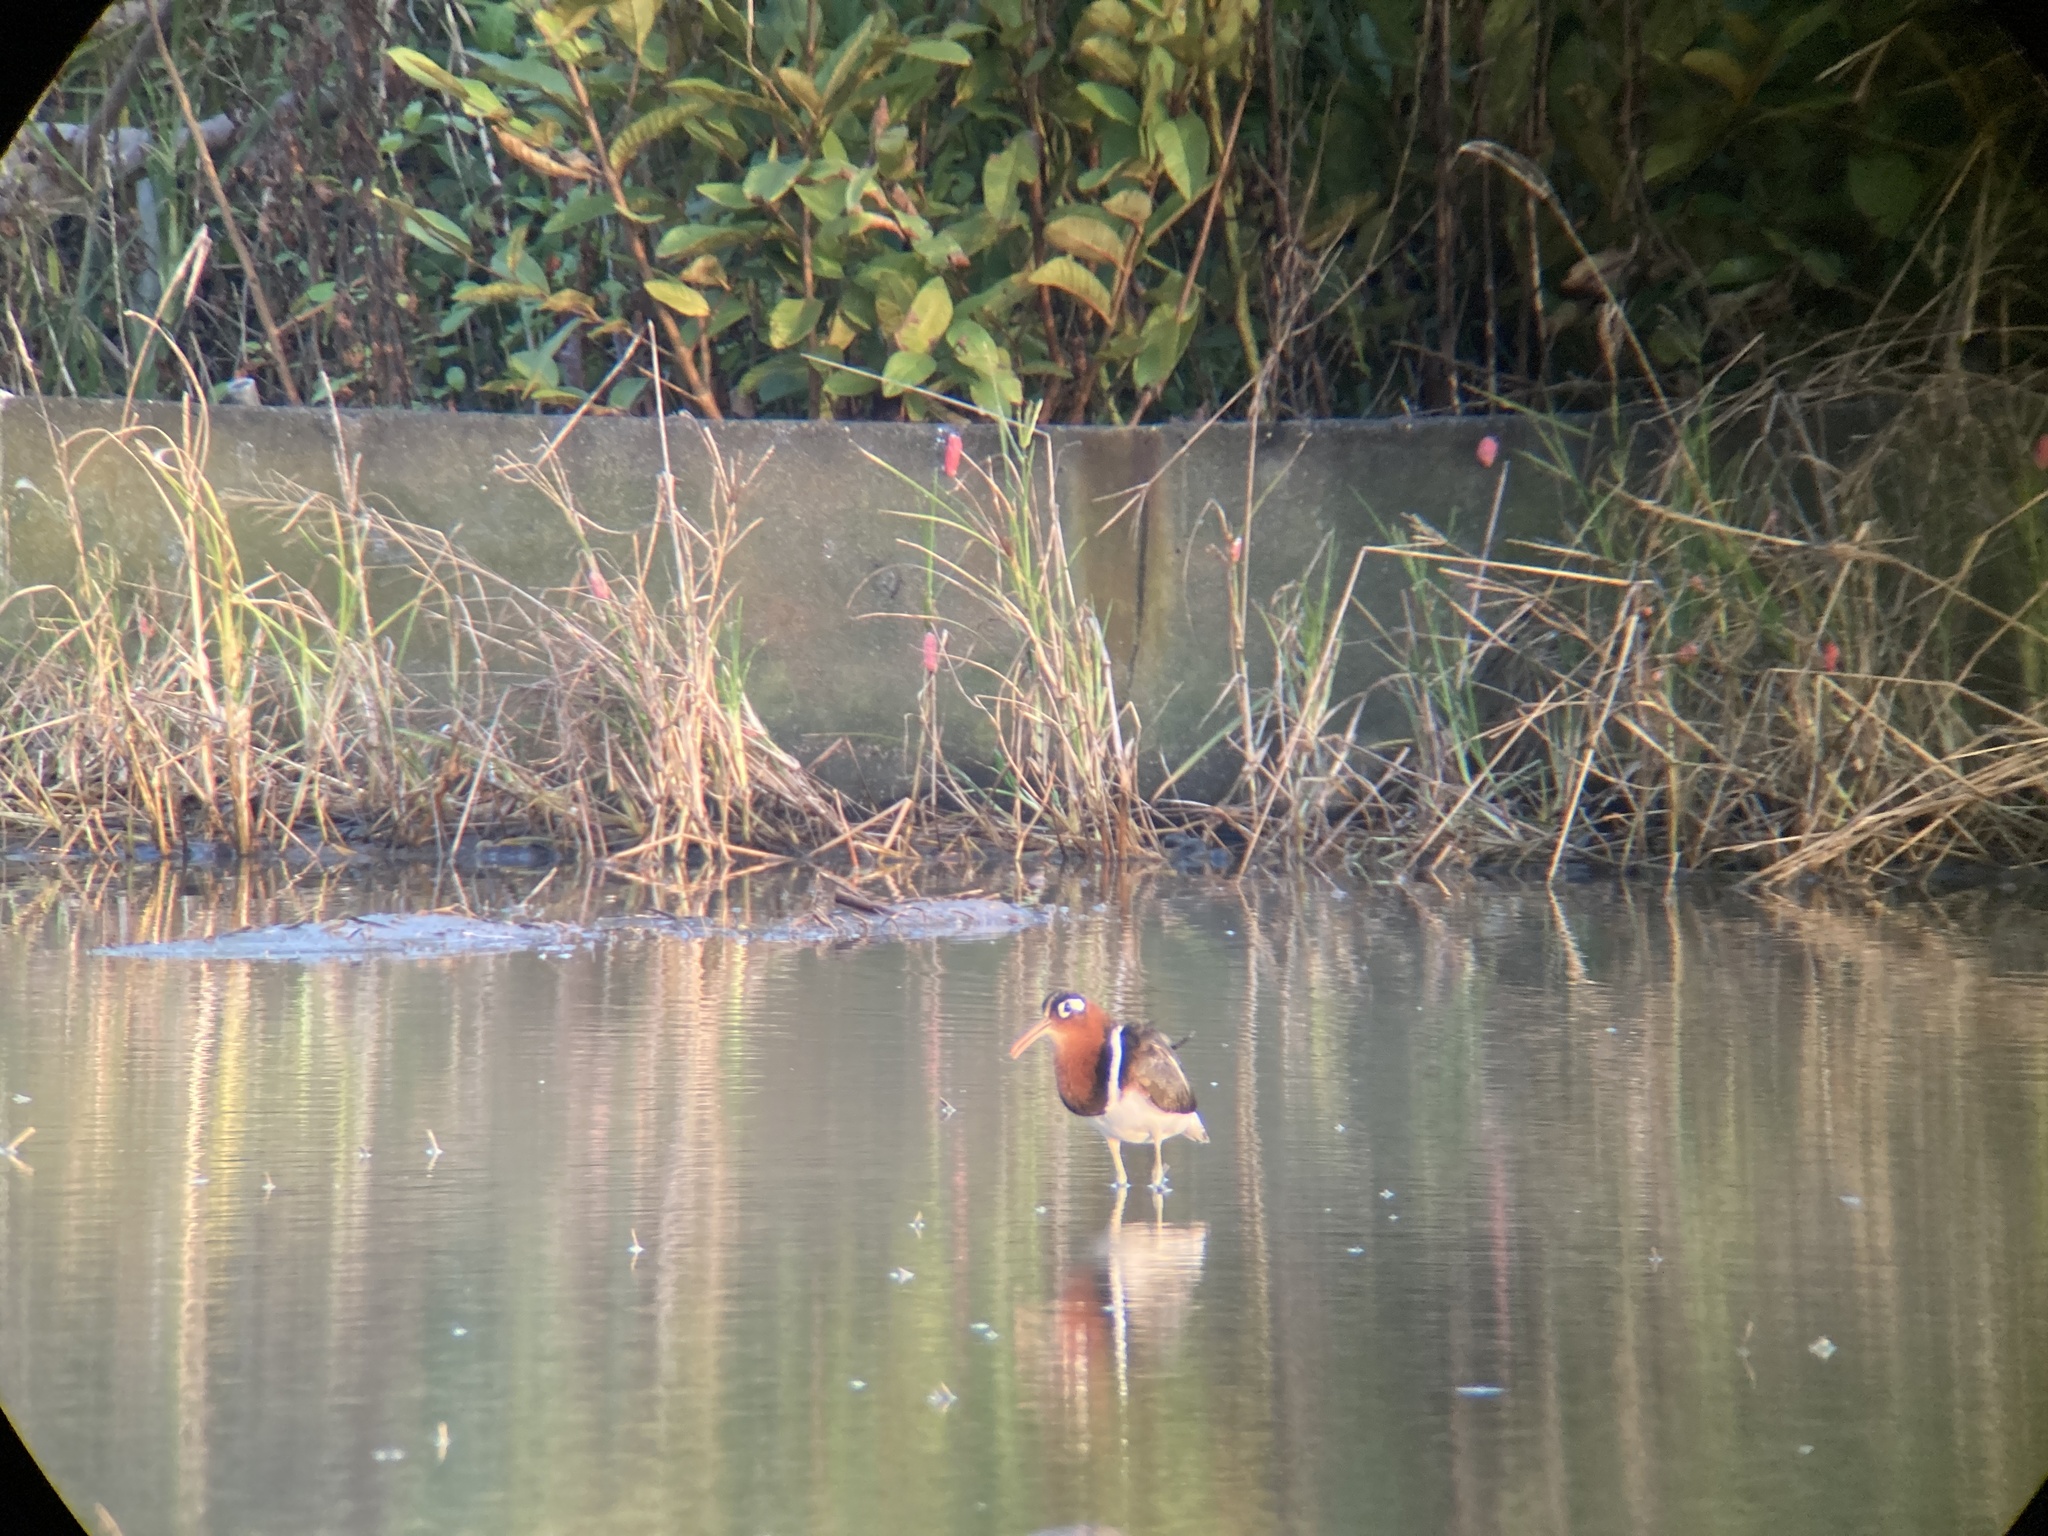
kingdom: Animalia
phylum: Chordata
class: Aves
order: Charadriiformes
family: Rostratulidae
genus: Rostratula
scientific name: Rostratula benghalensis
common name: Greater painted-snipe
